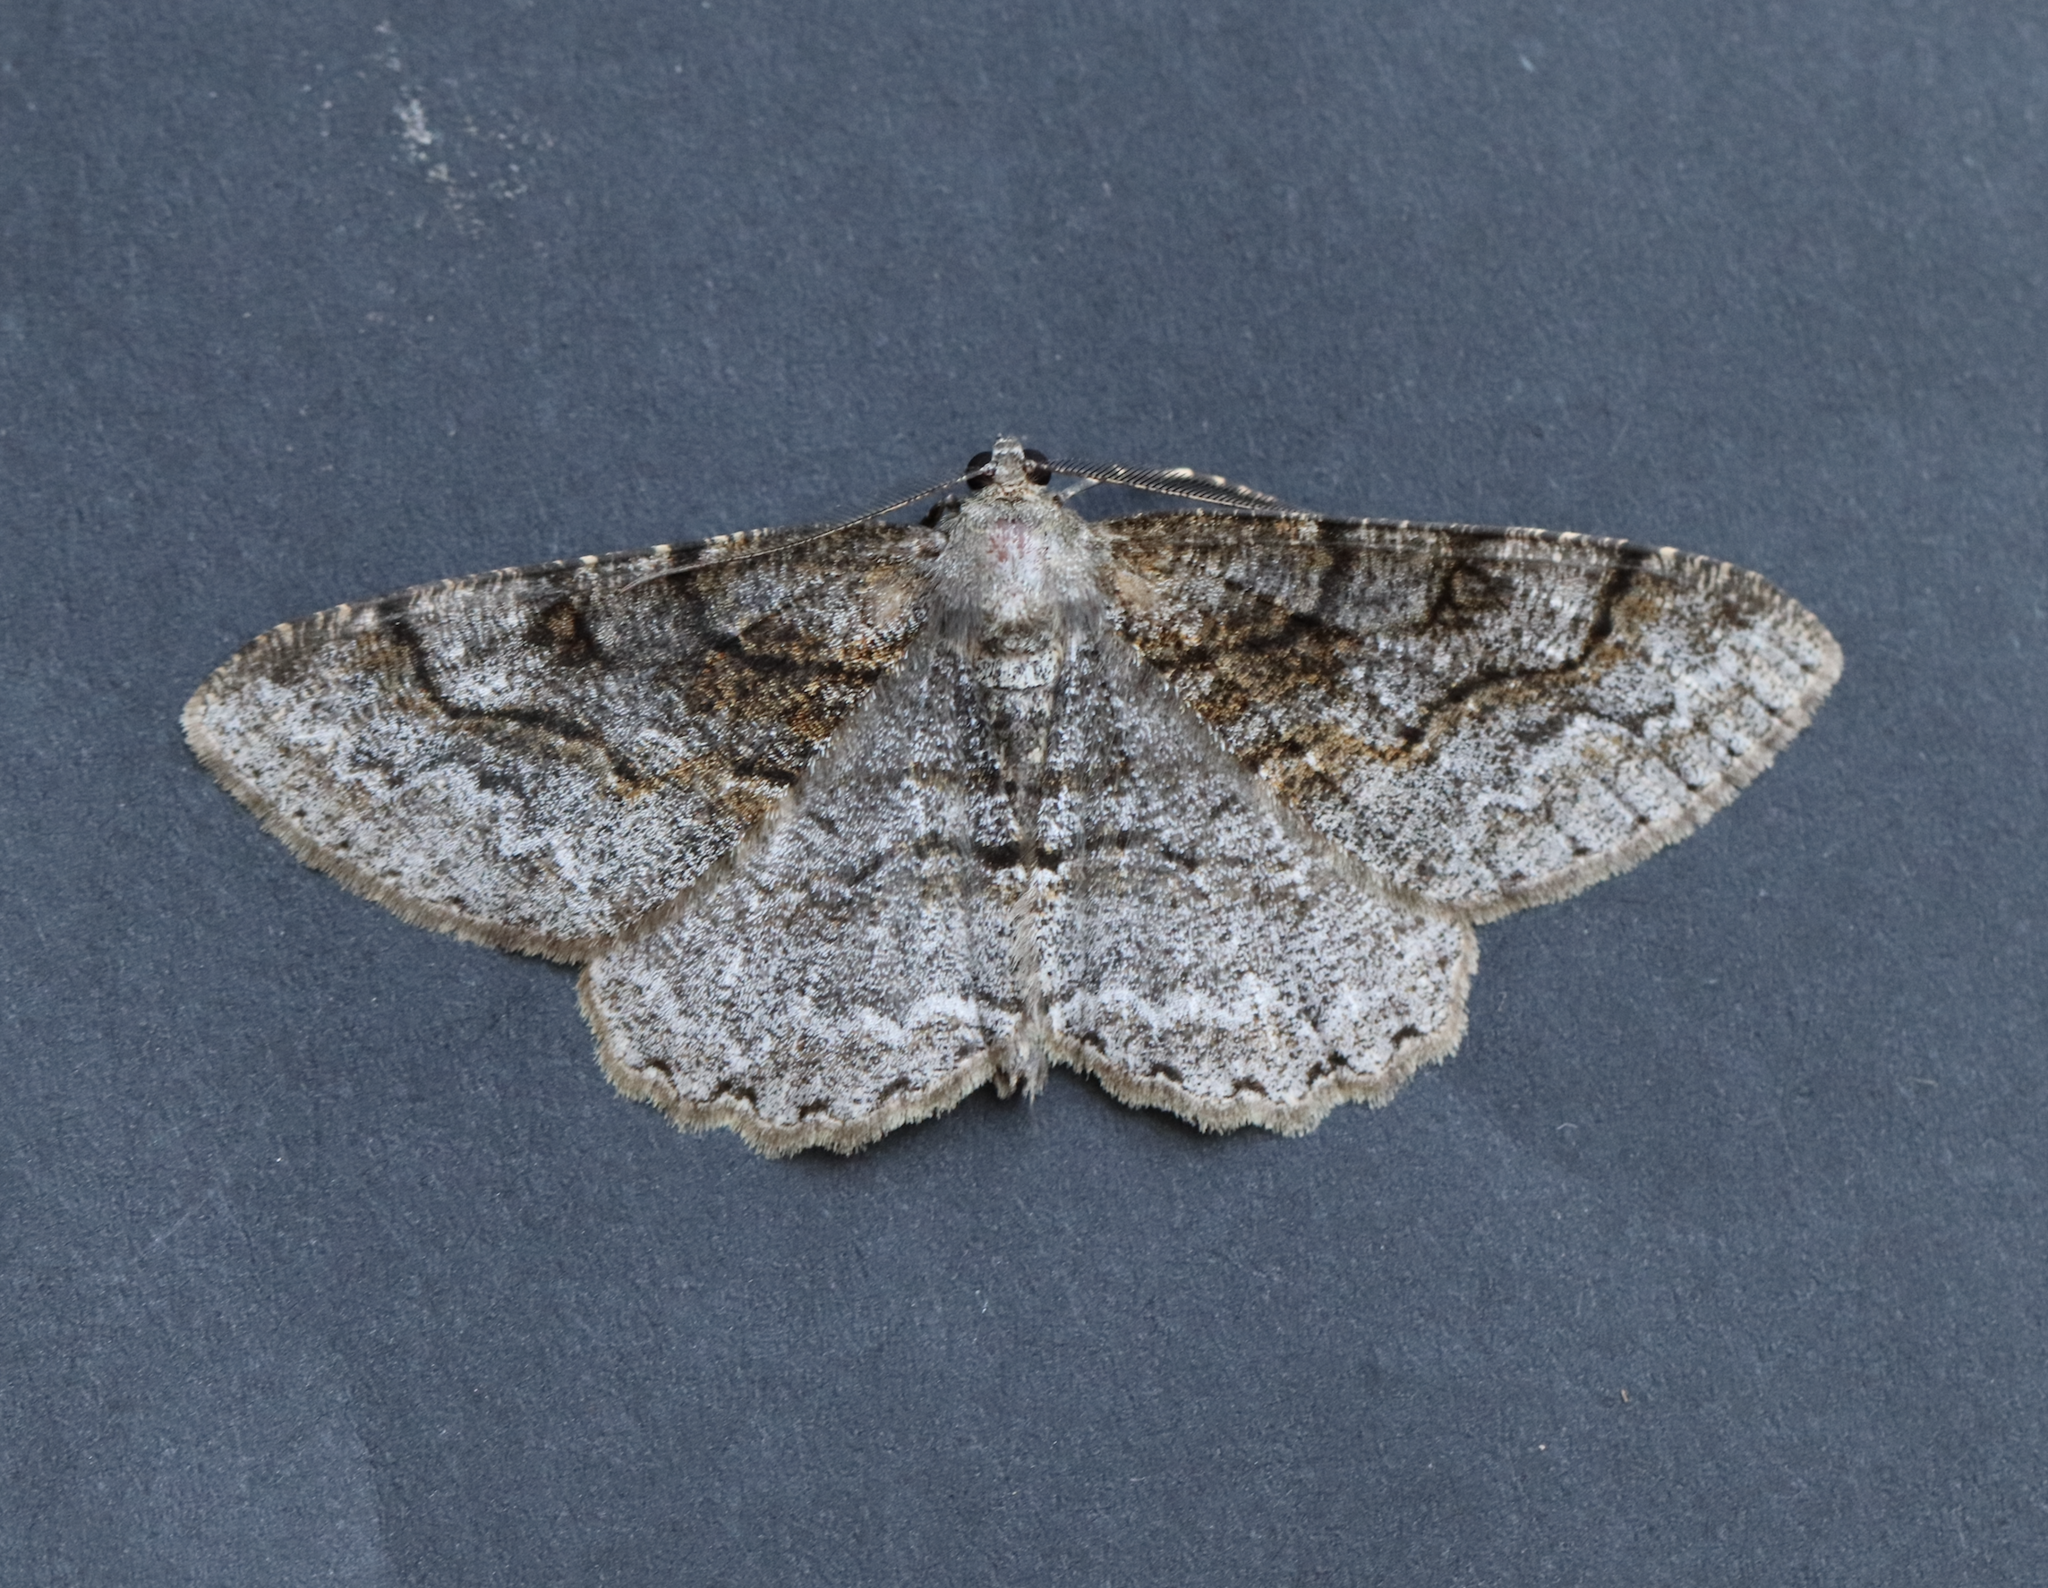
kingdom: Animalia
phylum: Arthropoda
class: Insecta
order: Lepidoptera
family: Geometridae
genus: Alcis
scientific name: Alcis repandata
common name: Mottled beauty
